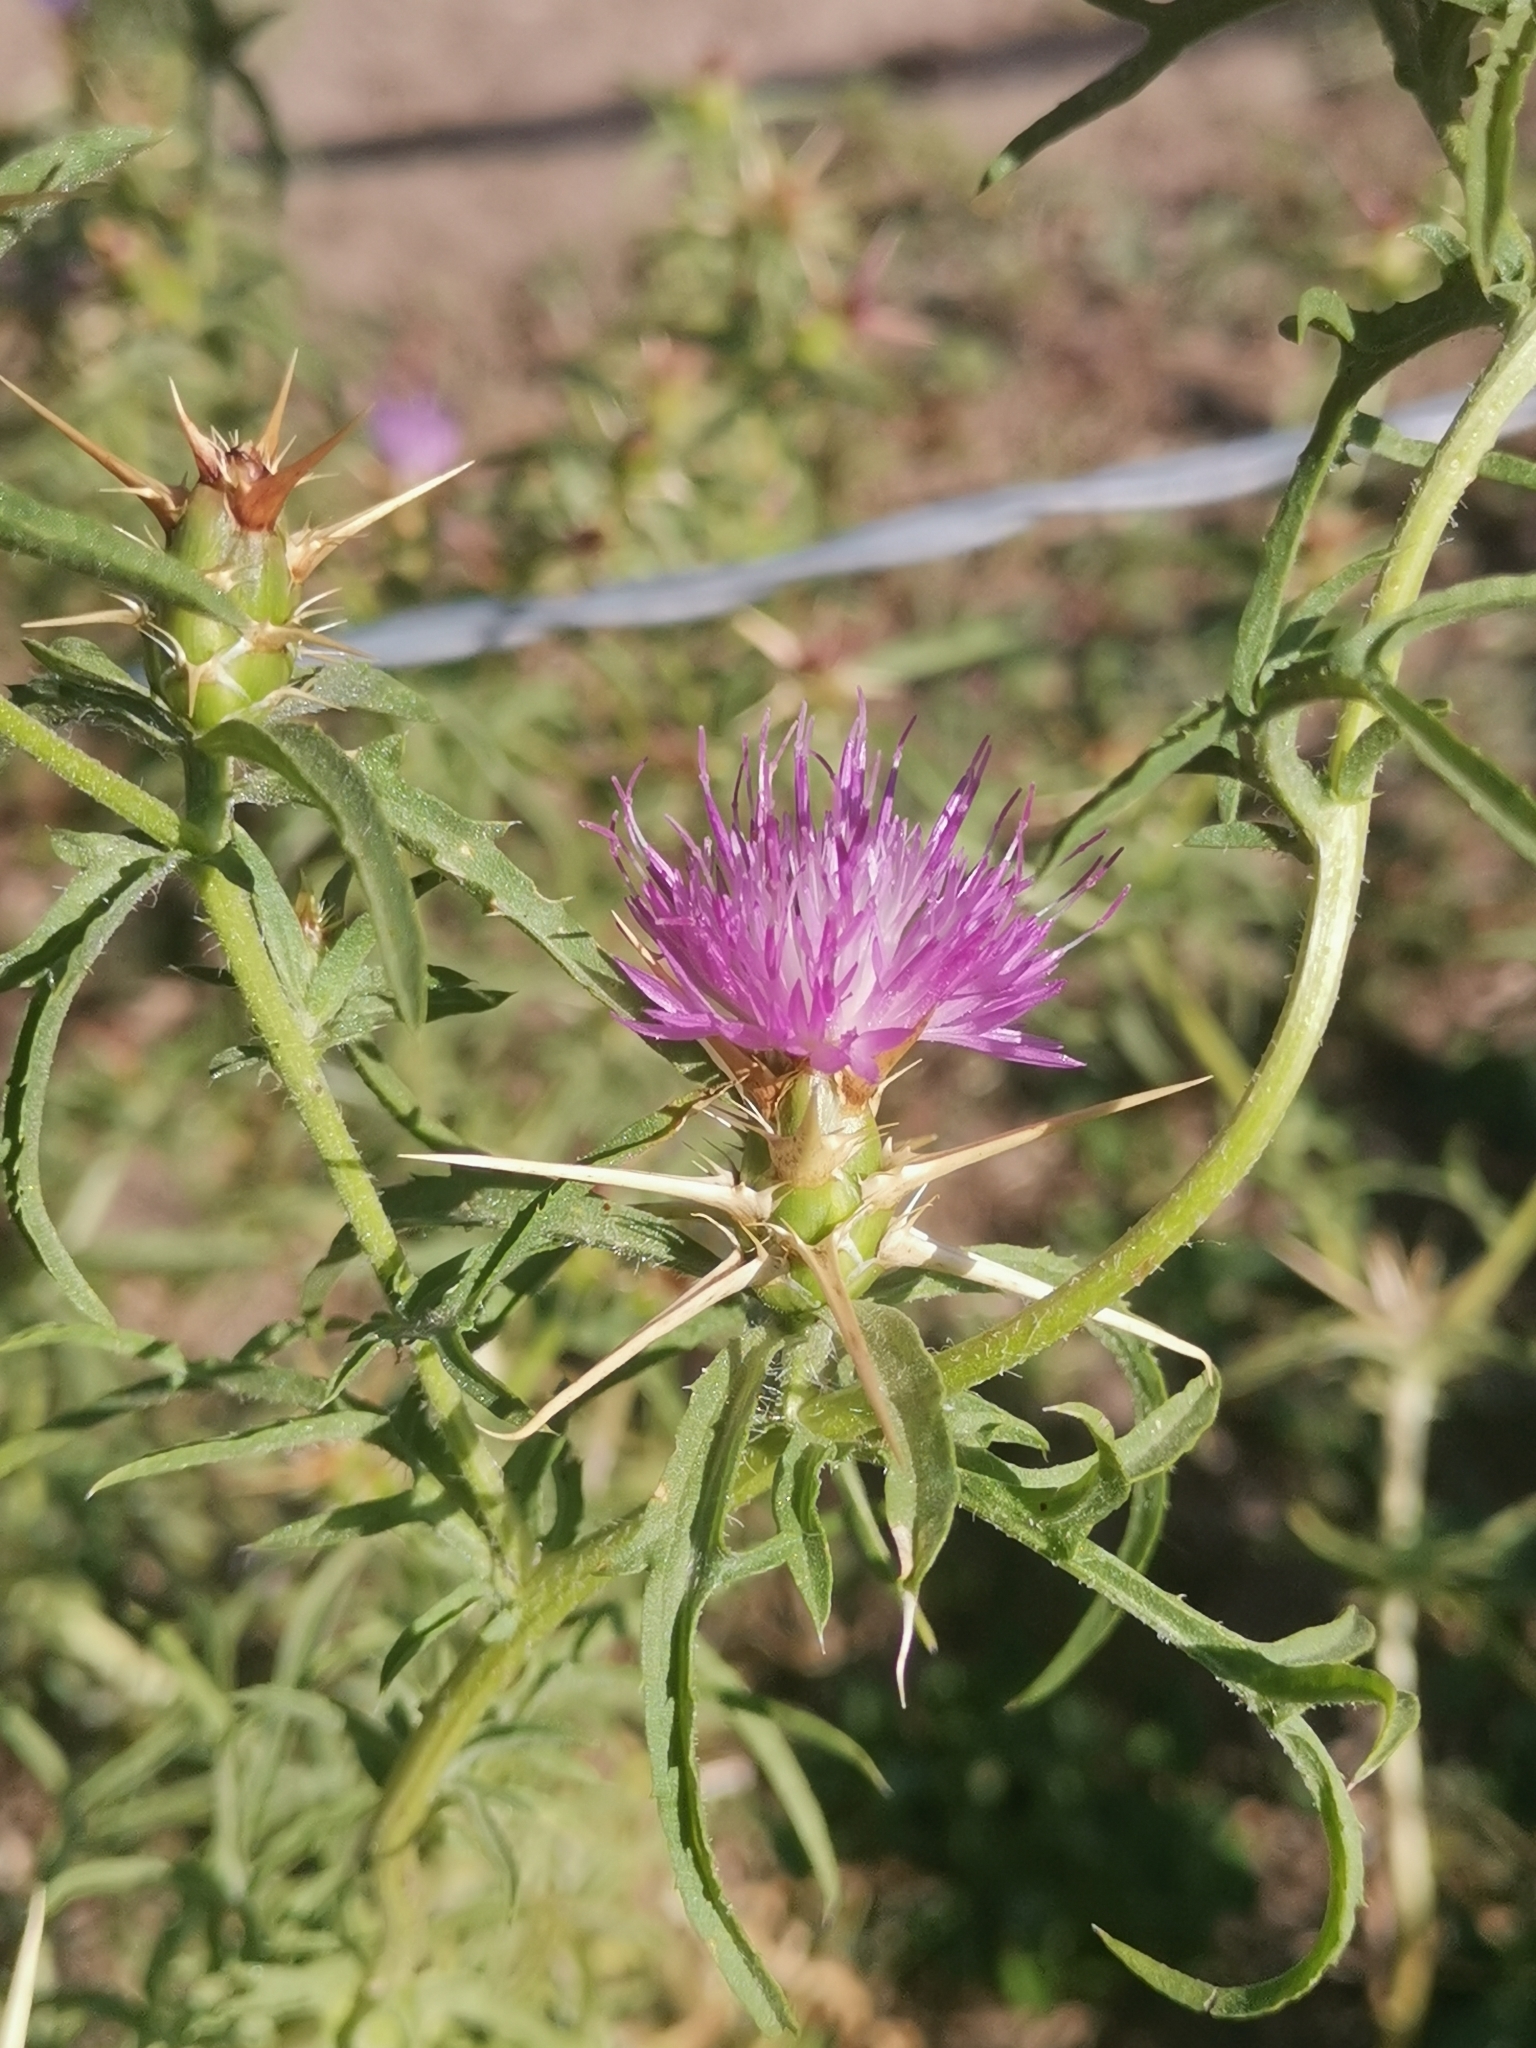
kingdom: Plantae
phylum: Tracheophyta
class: Magnoliopsida
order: Asterales
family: Asteraceae
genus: Centaurea
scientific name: Centaurea calcitrapa
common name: Red star-thistle
